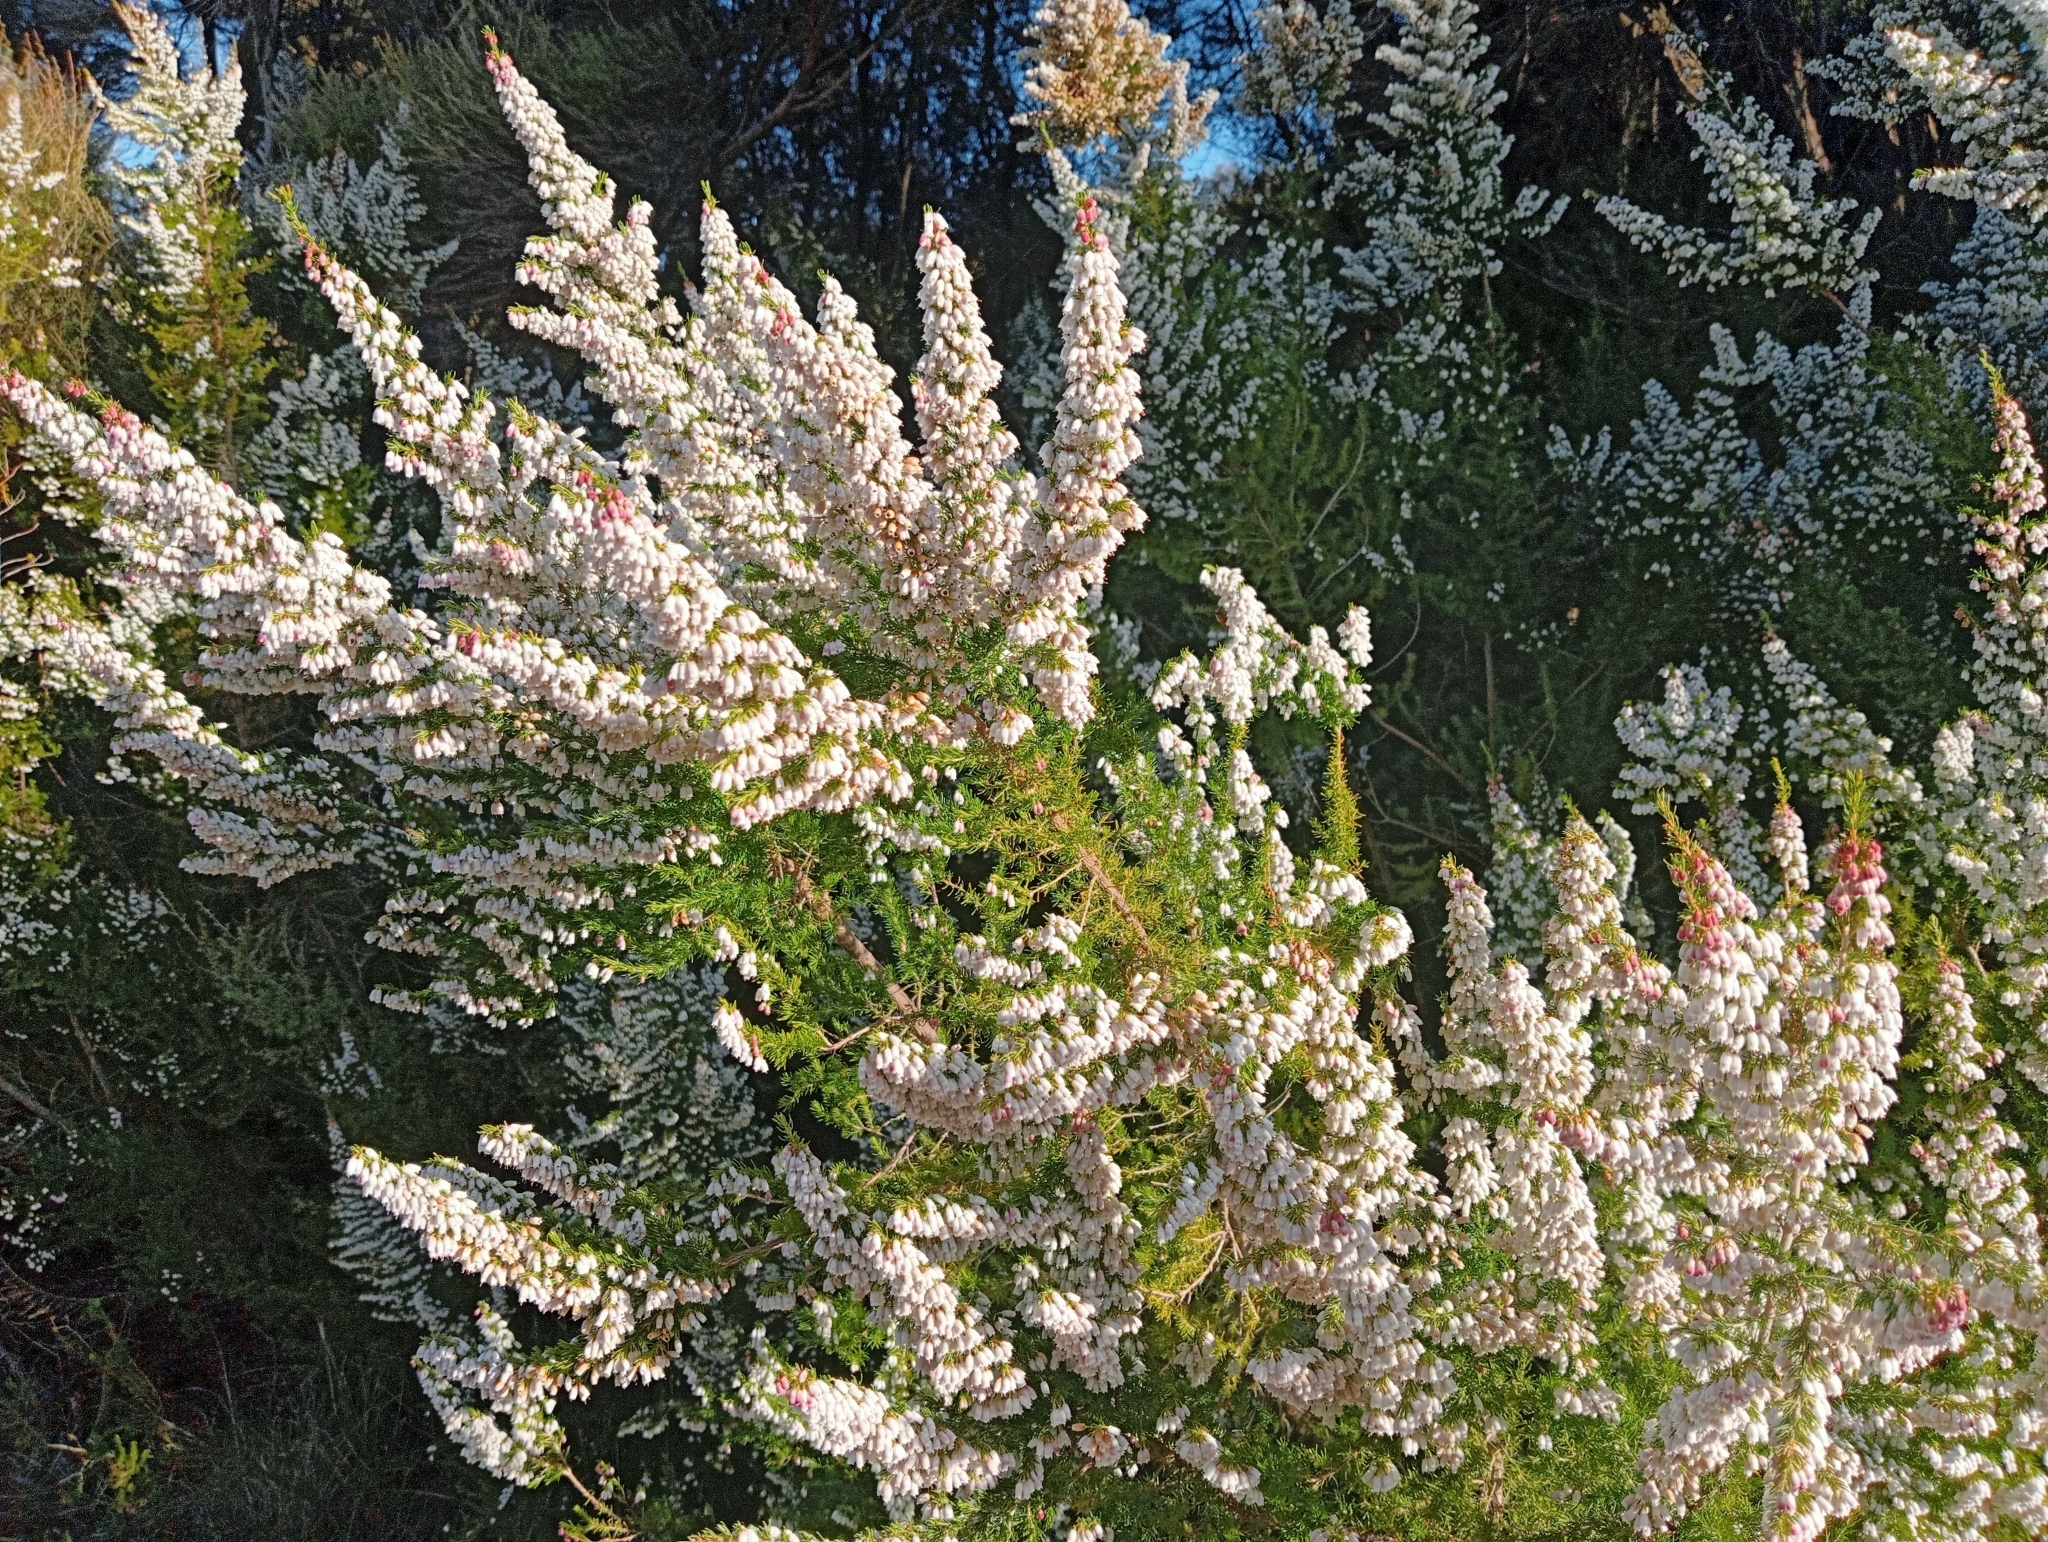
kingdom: Plantae
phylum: Tracheophyta
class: Magnoliopsida
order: Ericales
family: Ericaceae
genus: Erica
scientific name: Erica lusitanica
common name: Spanish heath
